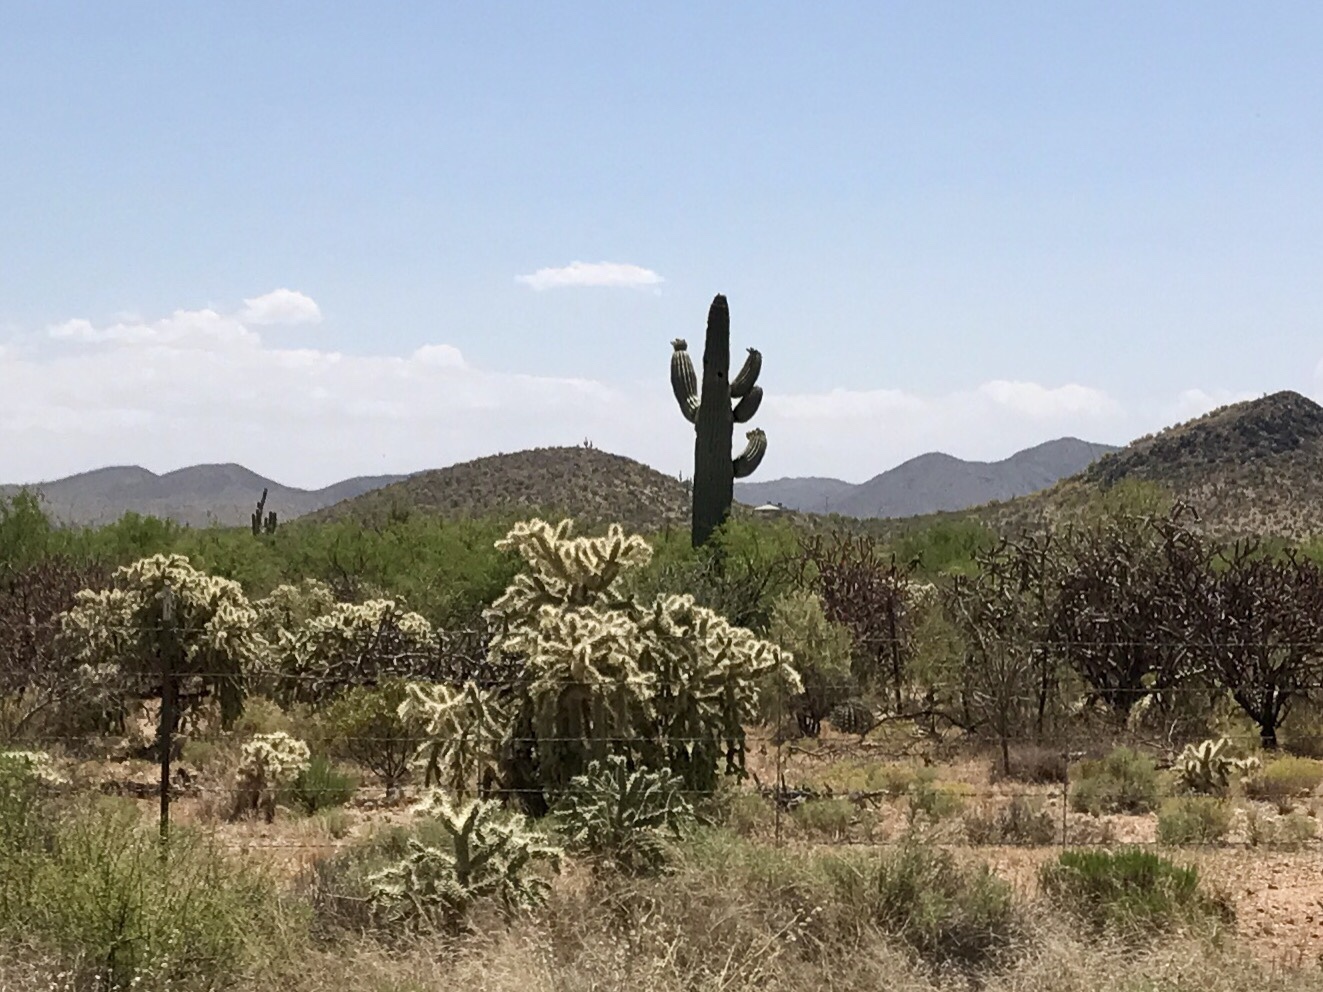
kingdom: Plantae
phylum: Tracheophyta
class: Magnoliopsida
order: Caryophyllales
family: Cactaceae
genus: Carnegiea
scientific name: Carnegiea gigantea
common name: Saguaro
